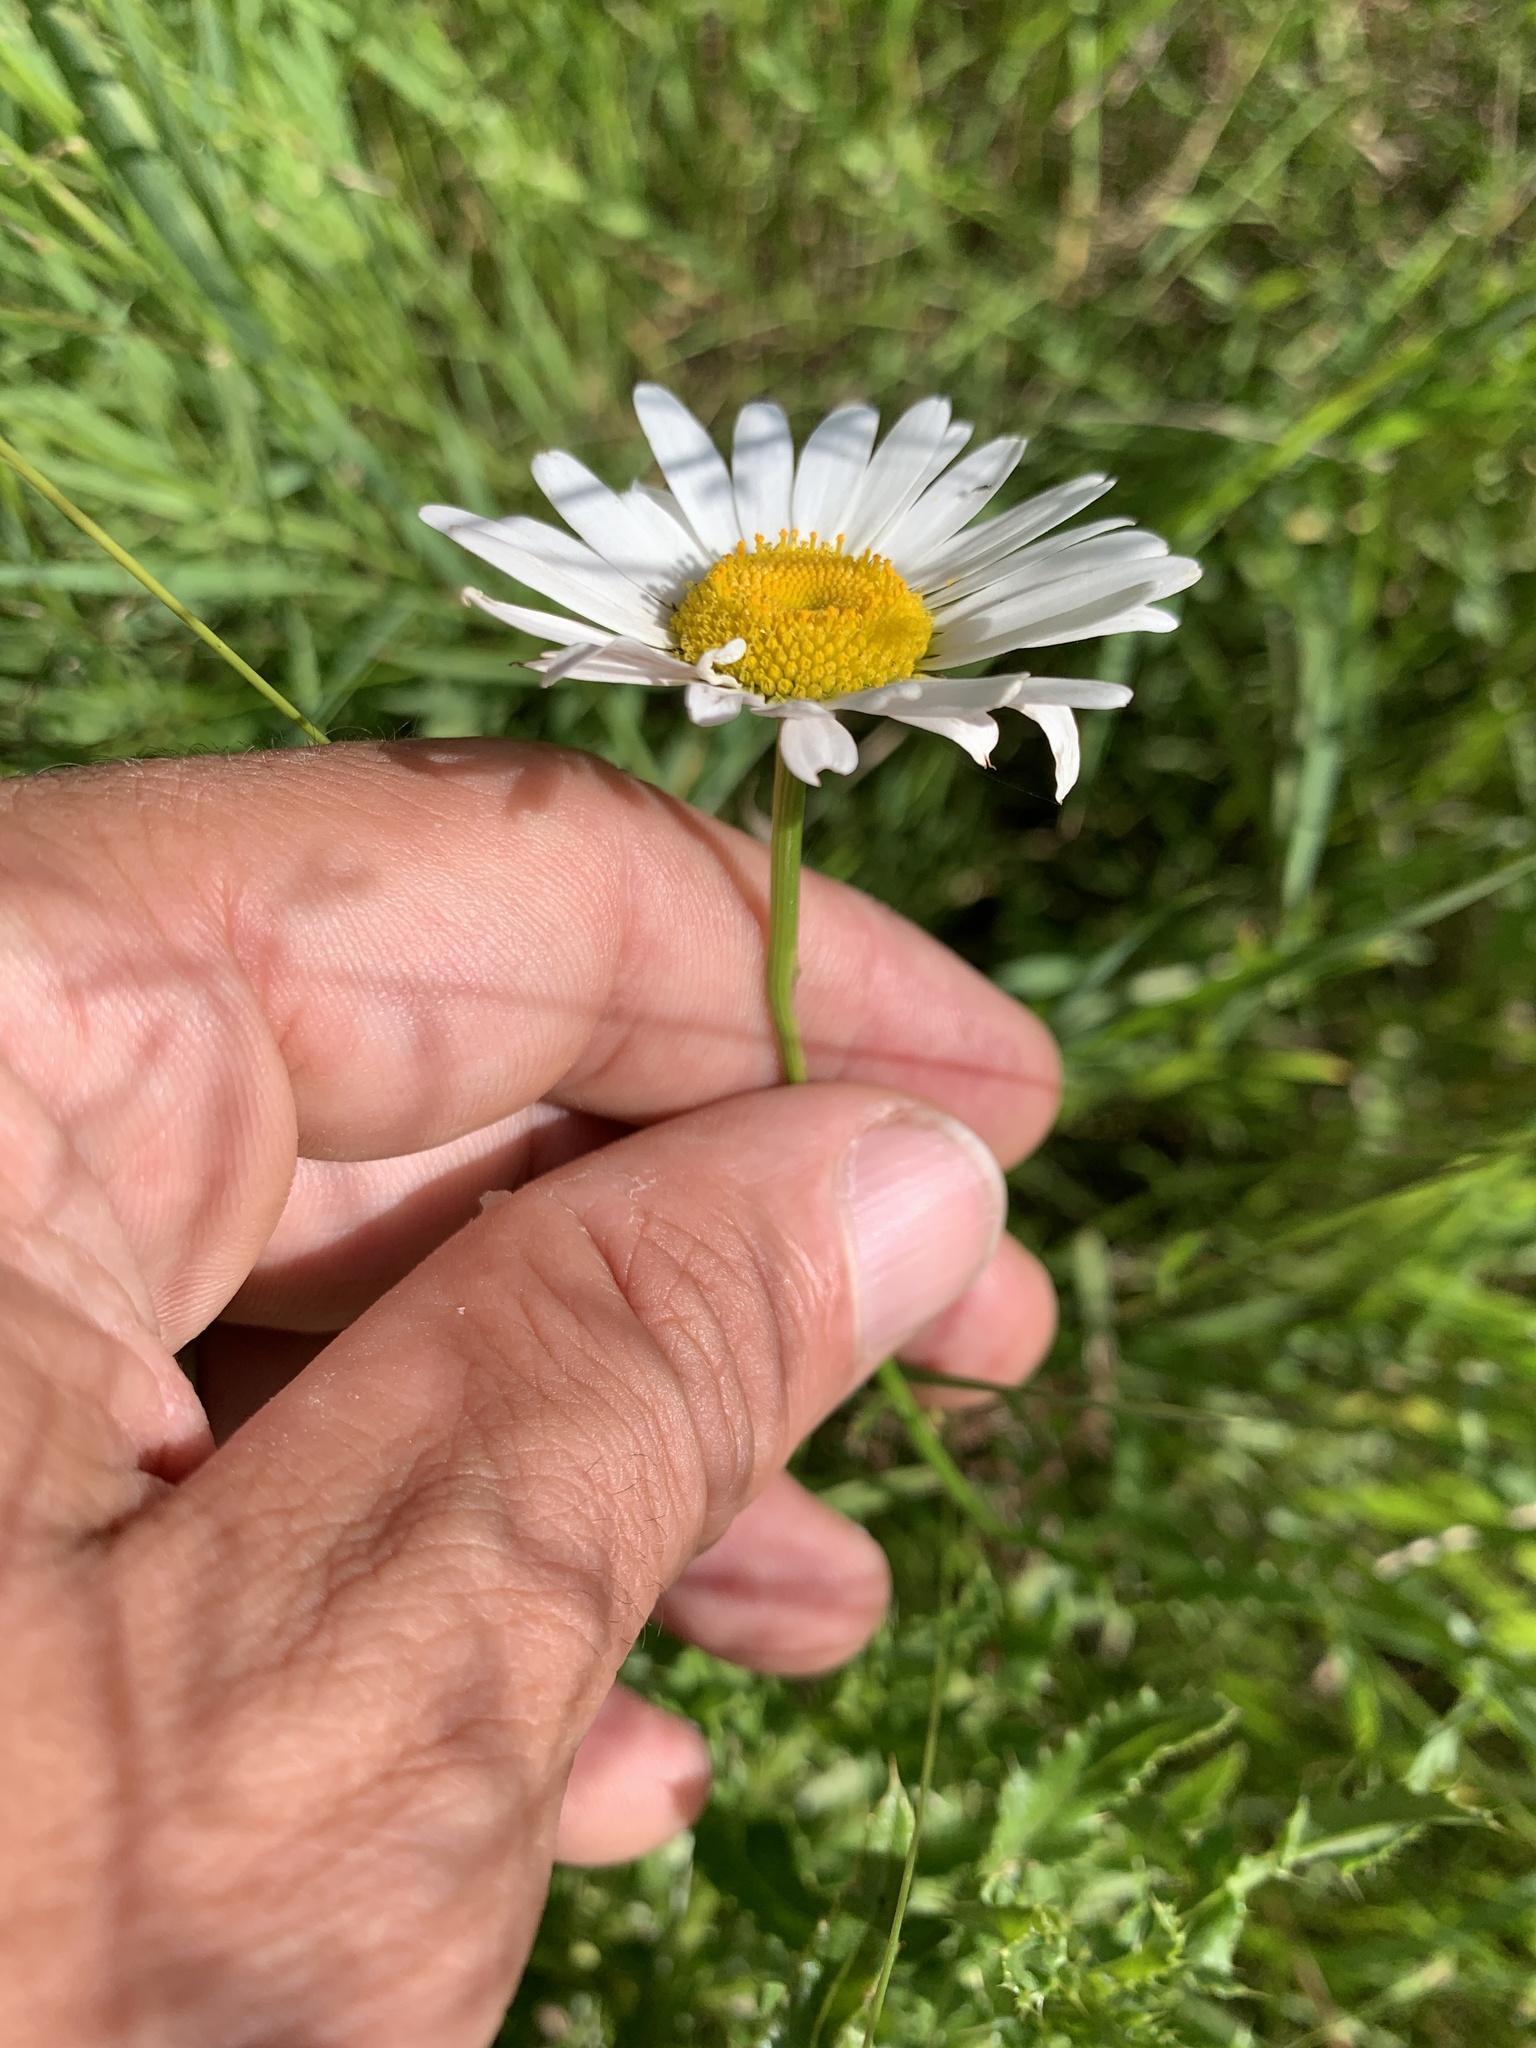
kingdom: Plantae
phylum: Tracheophyta
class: Magnoliopsida
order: Asterales
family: Asteraceae
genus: Leucanthemum
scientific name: Leucanthemum vulgare
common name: Oxeye daisy
